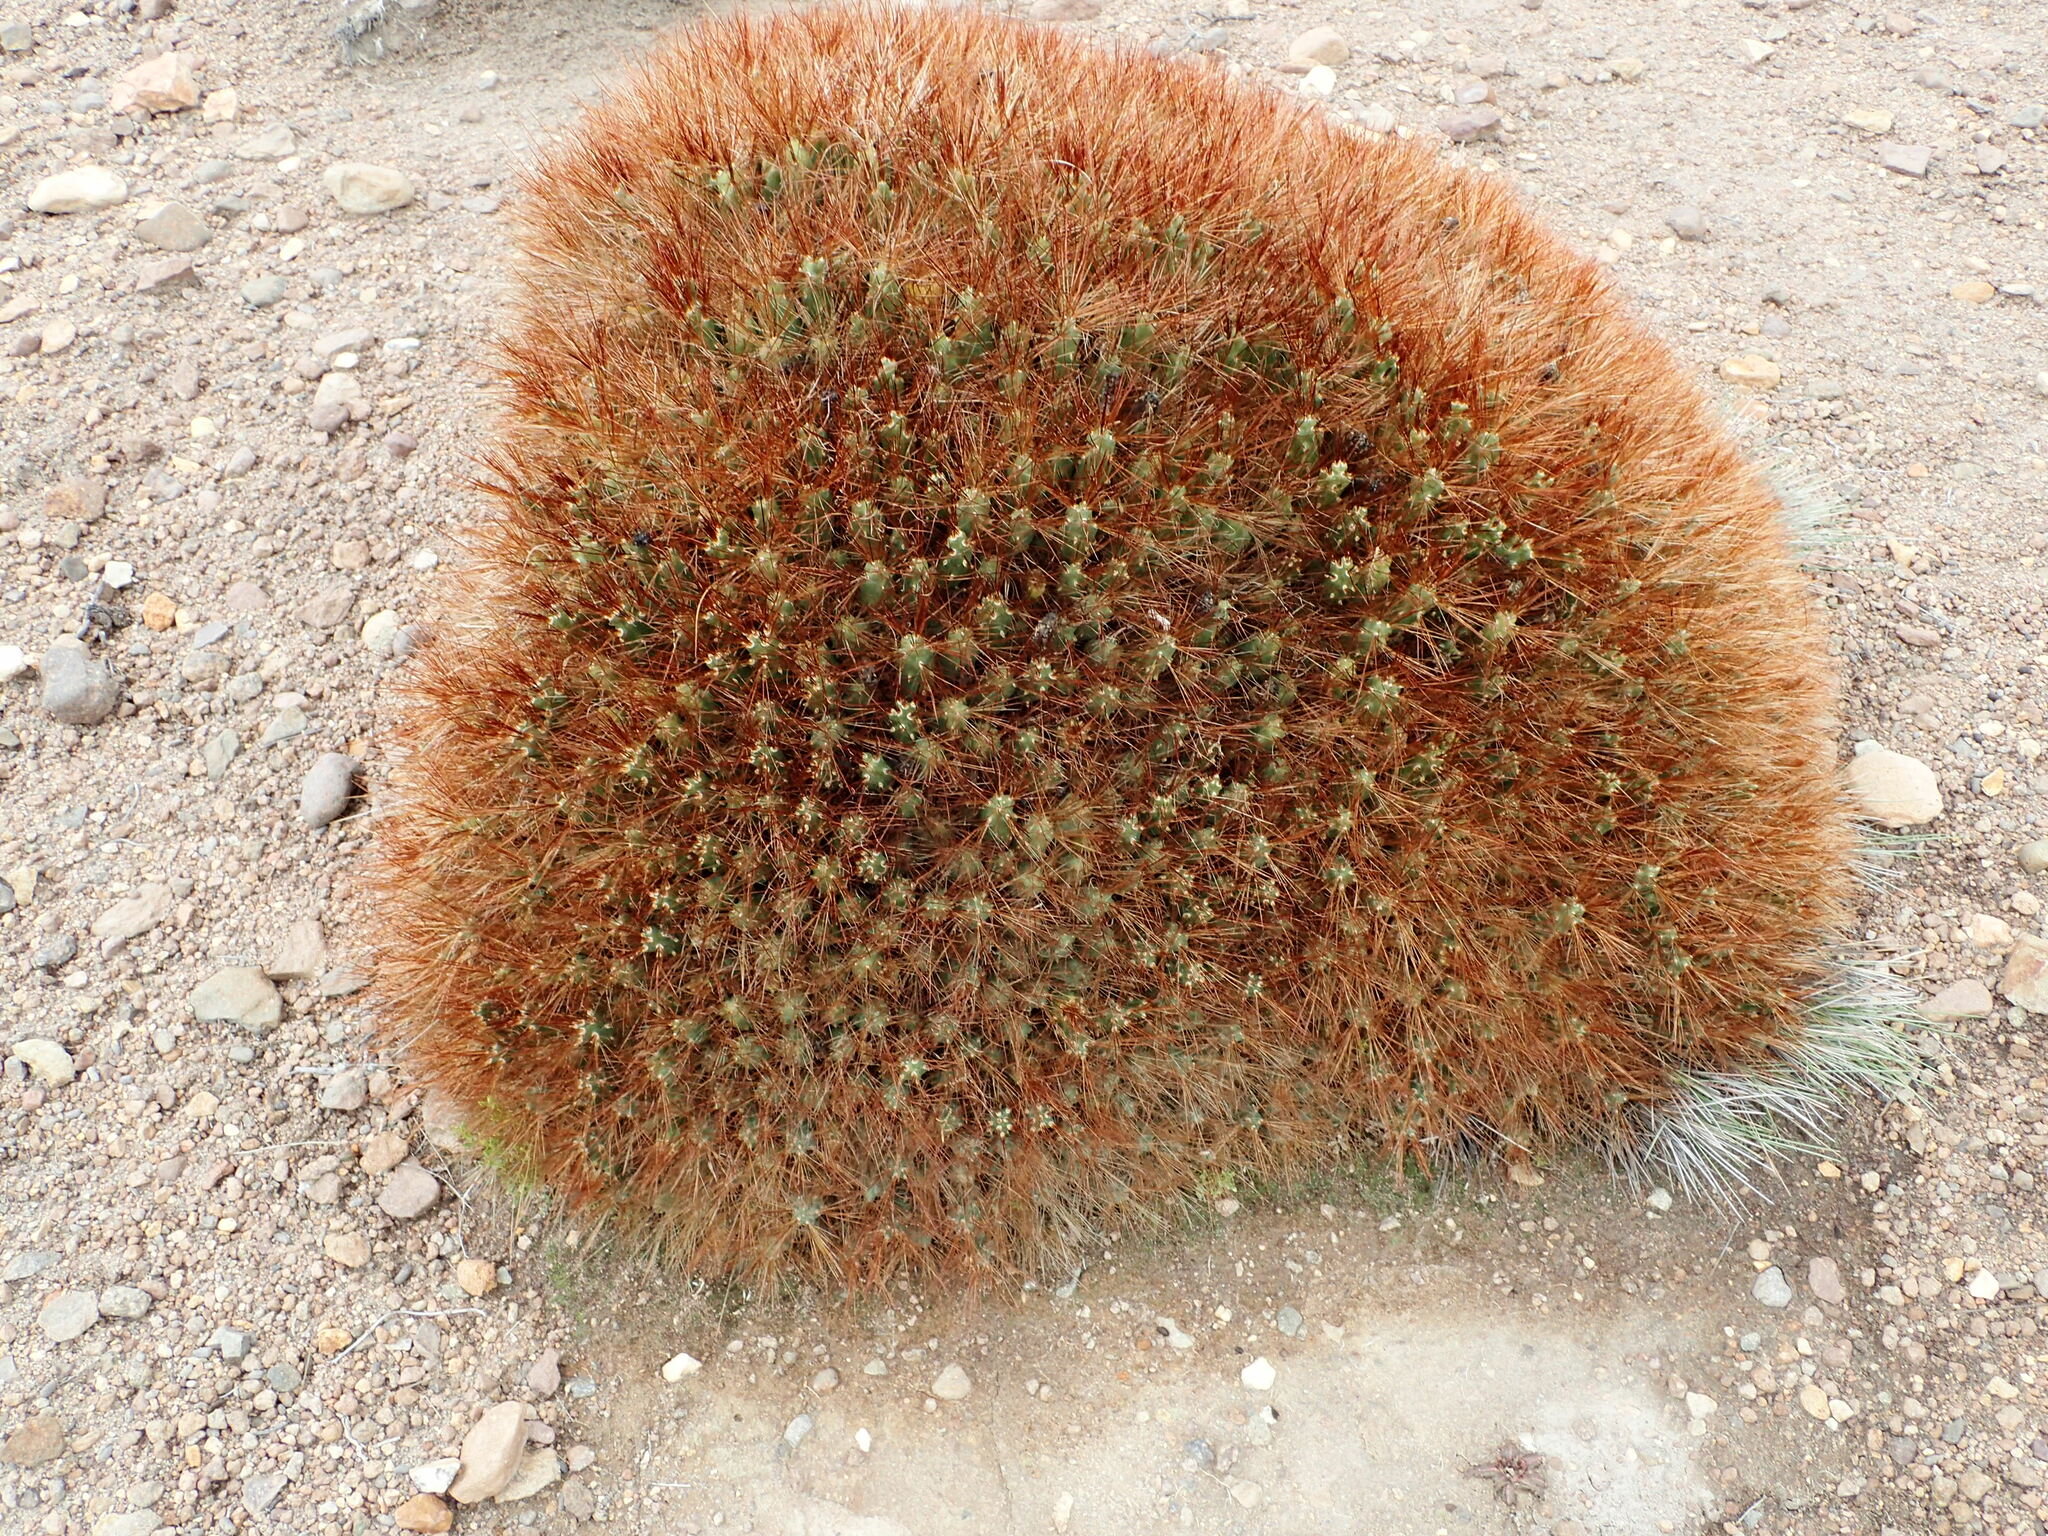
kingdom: Plantae
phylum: Tracheophyta
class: Magnoliopsida
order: Caryophyllales
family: Cactaceae
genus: Cumulopuntia
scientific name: Cumulopuntia glomerata
